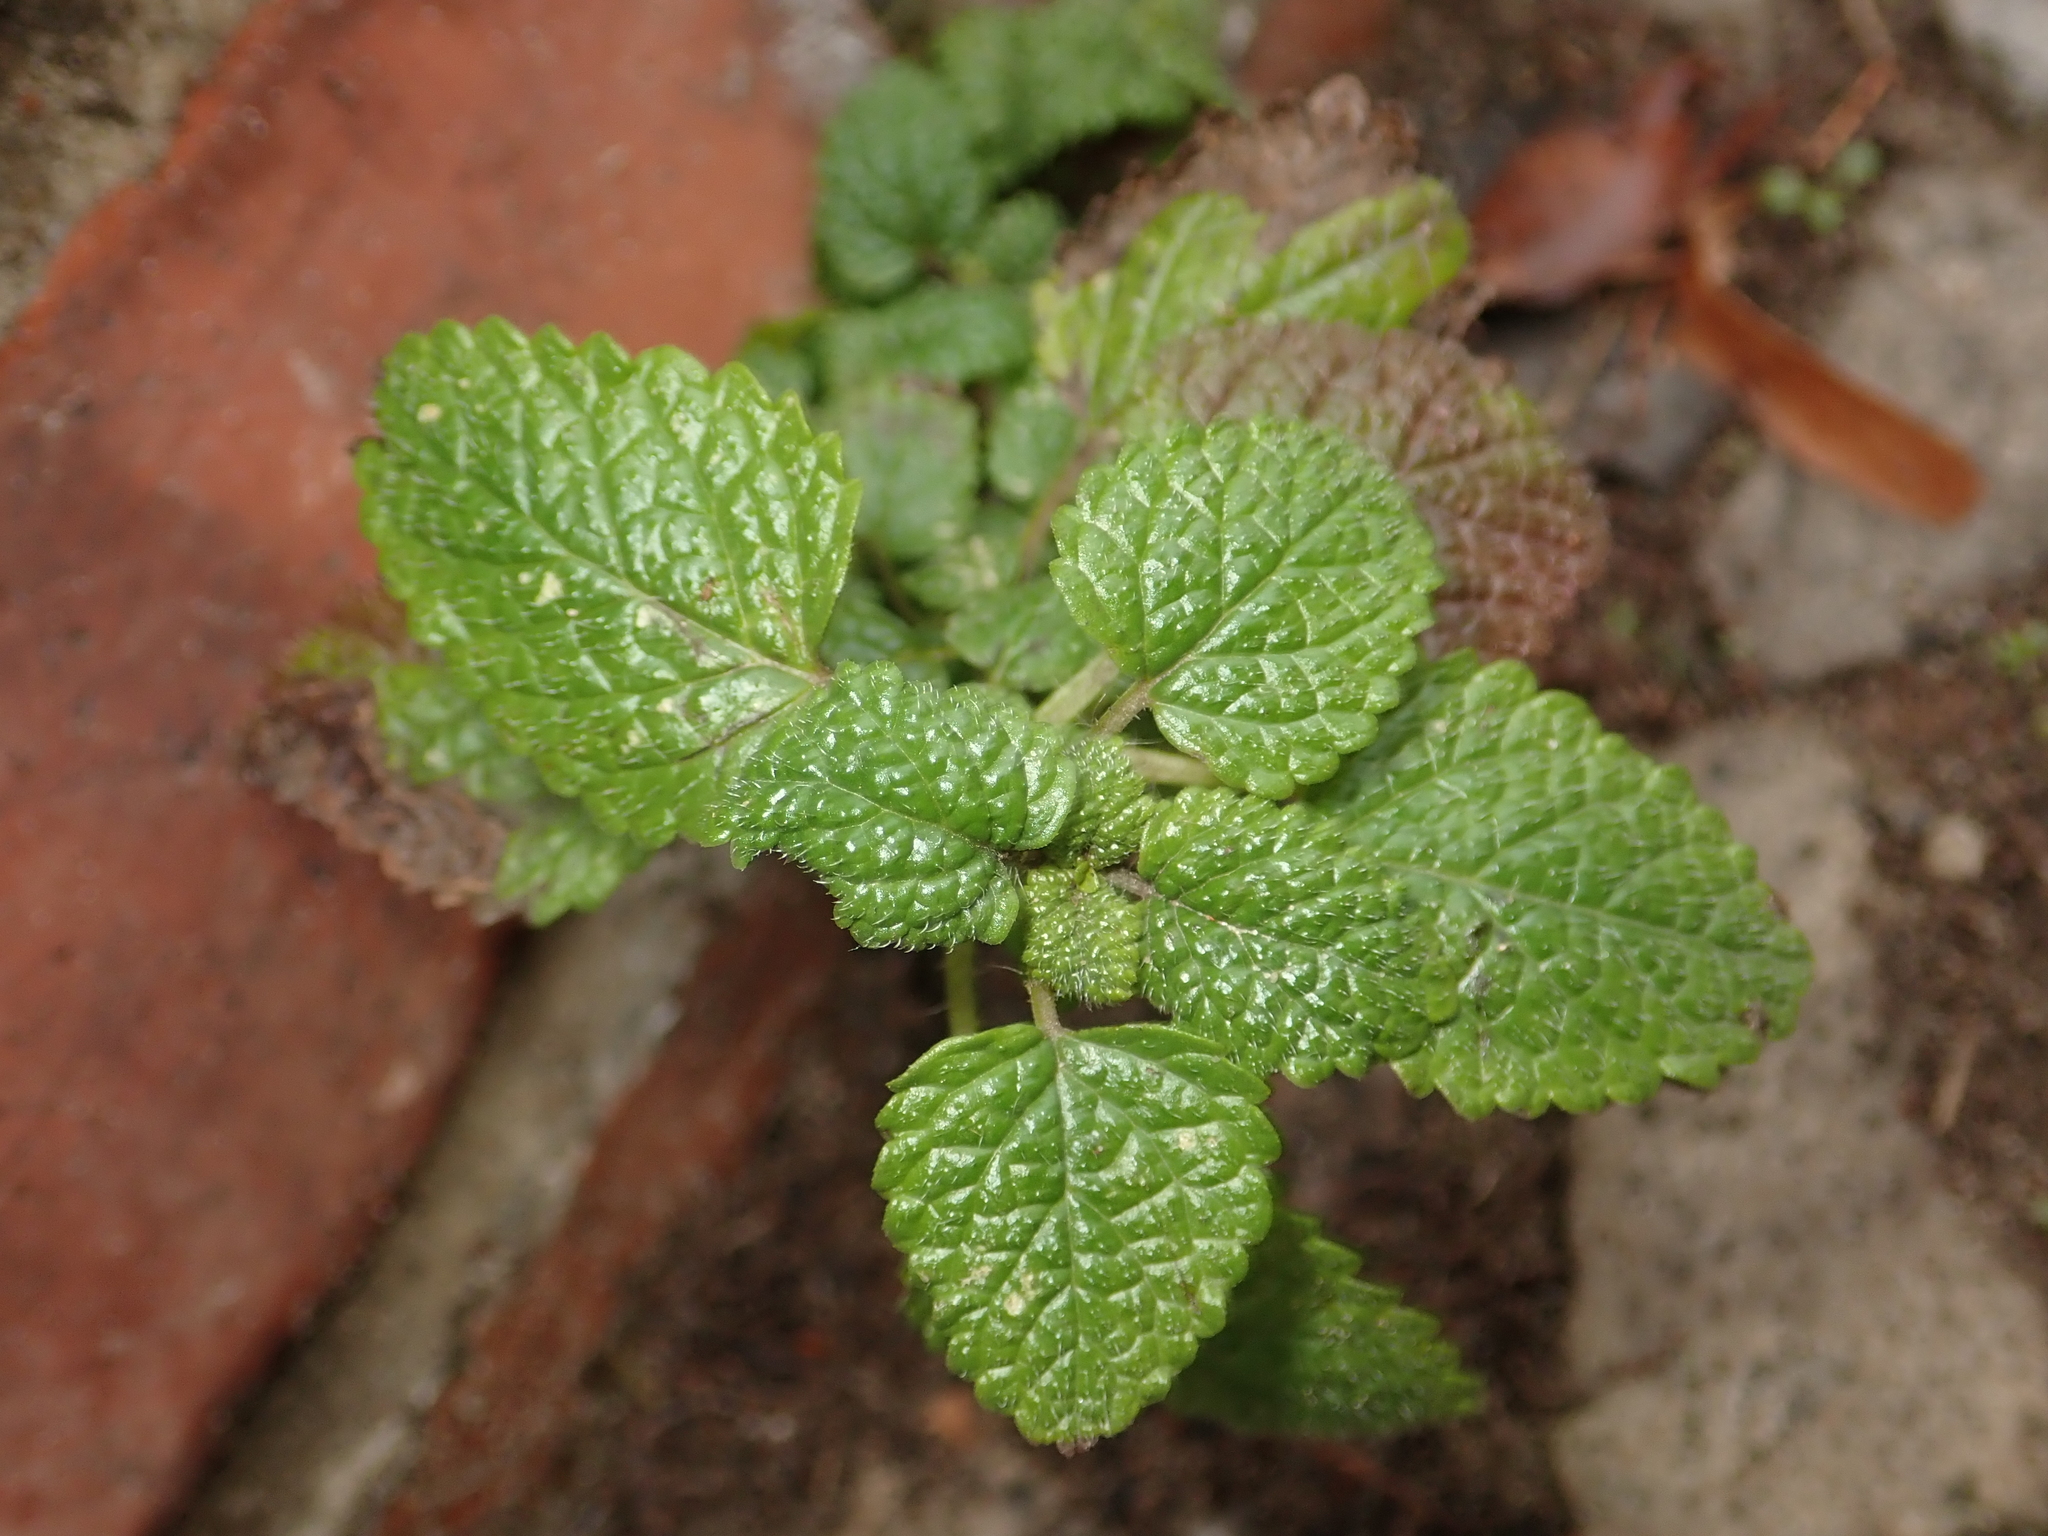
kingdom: Plantae
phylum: Tracheophyta
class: Magnoliopsida
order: Lamiales
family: Lamiaceae
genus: Melissa
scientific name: Melissa officinalis
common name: Balm
